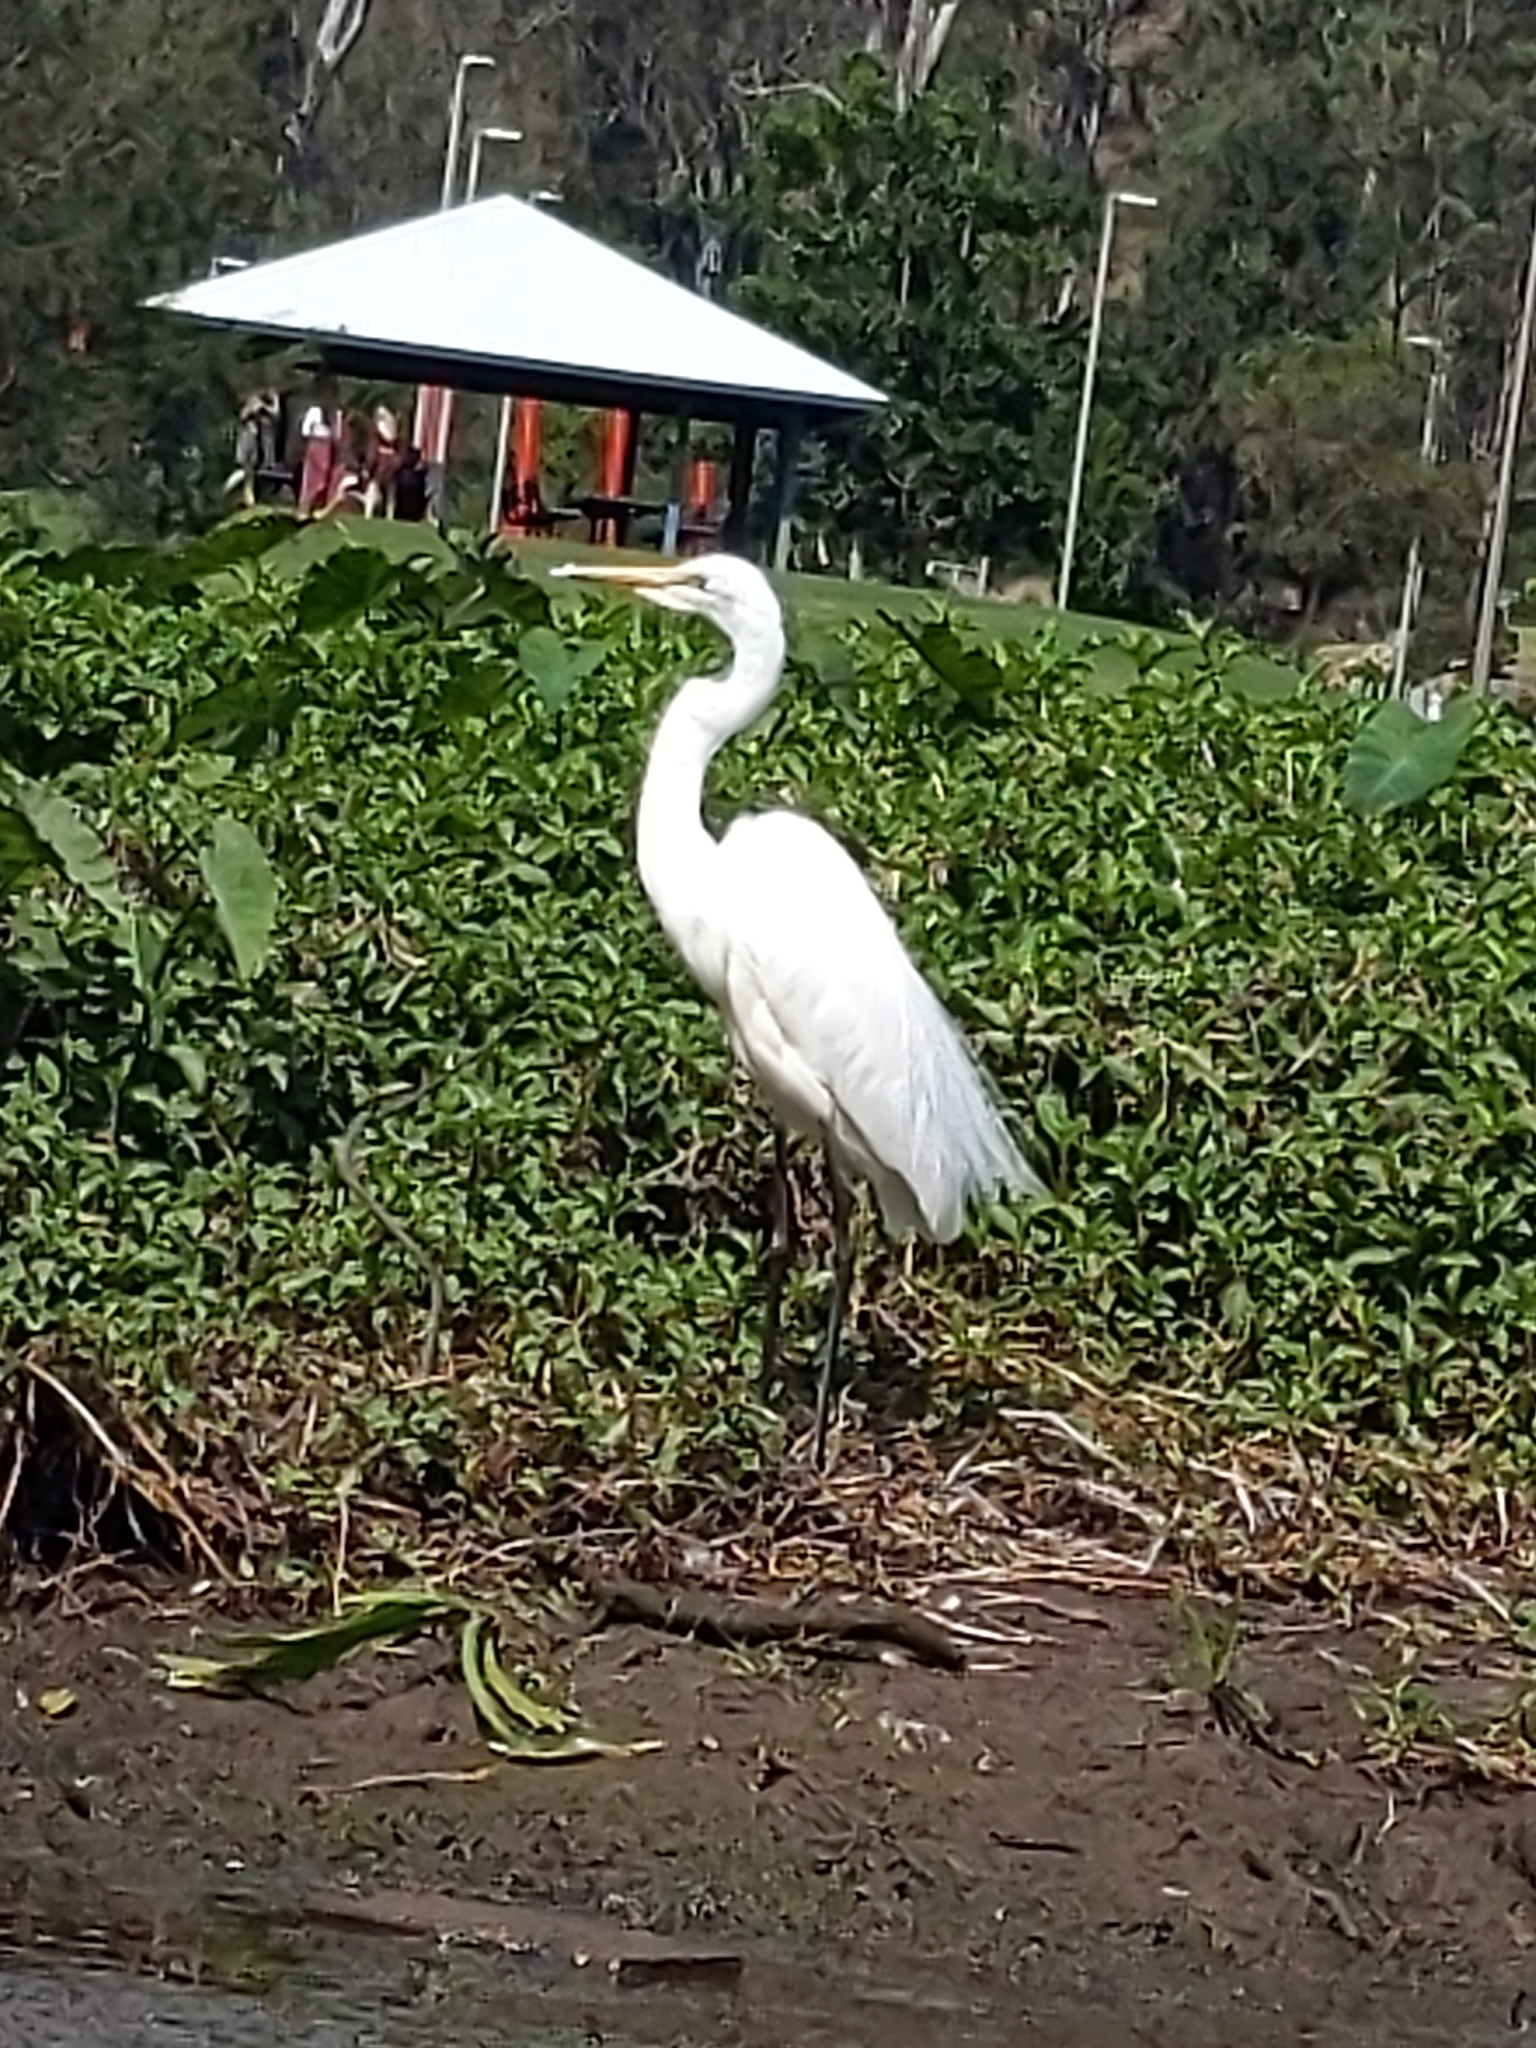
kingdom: Animalia
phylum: Chordata
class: Aves
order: Pelecaniformes
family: Ardeidae
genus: Ardea
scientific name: Ardea alba
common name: Great egret
